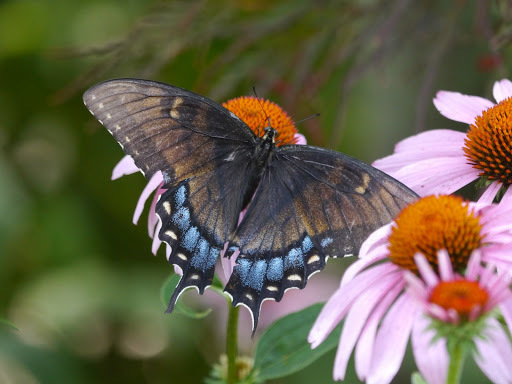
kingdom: Animalia
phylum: Arthropoda
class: Insecta
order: Lepidoptera
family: Papilionidae
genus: Papilio
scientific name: Papilio glaucus
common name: Tiger swallowtail
